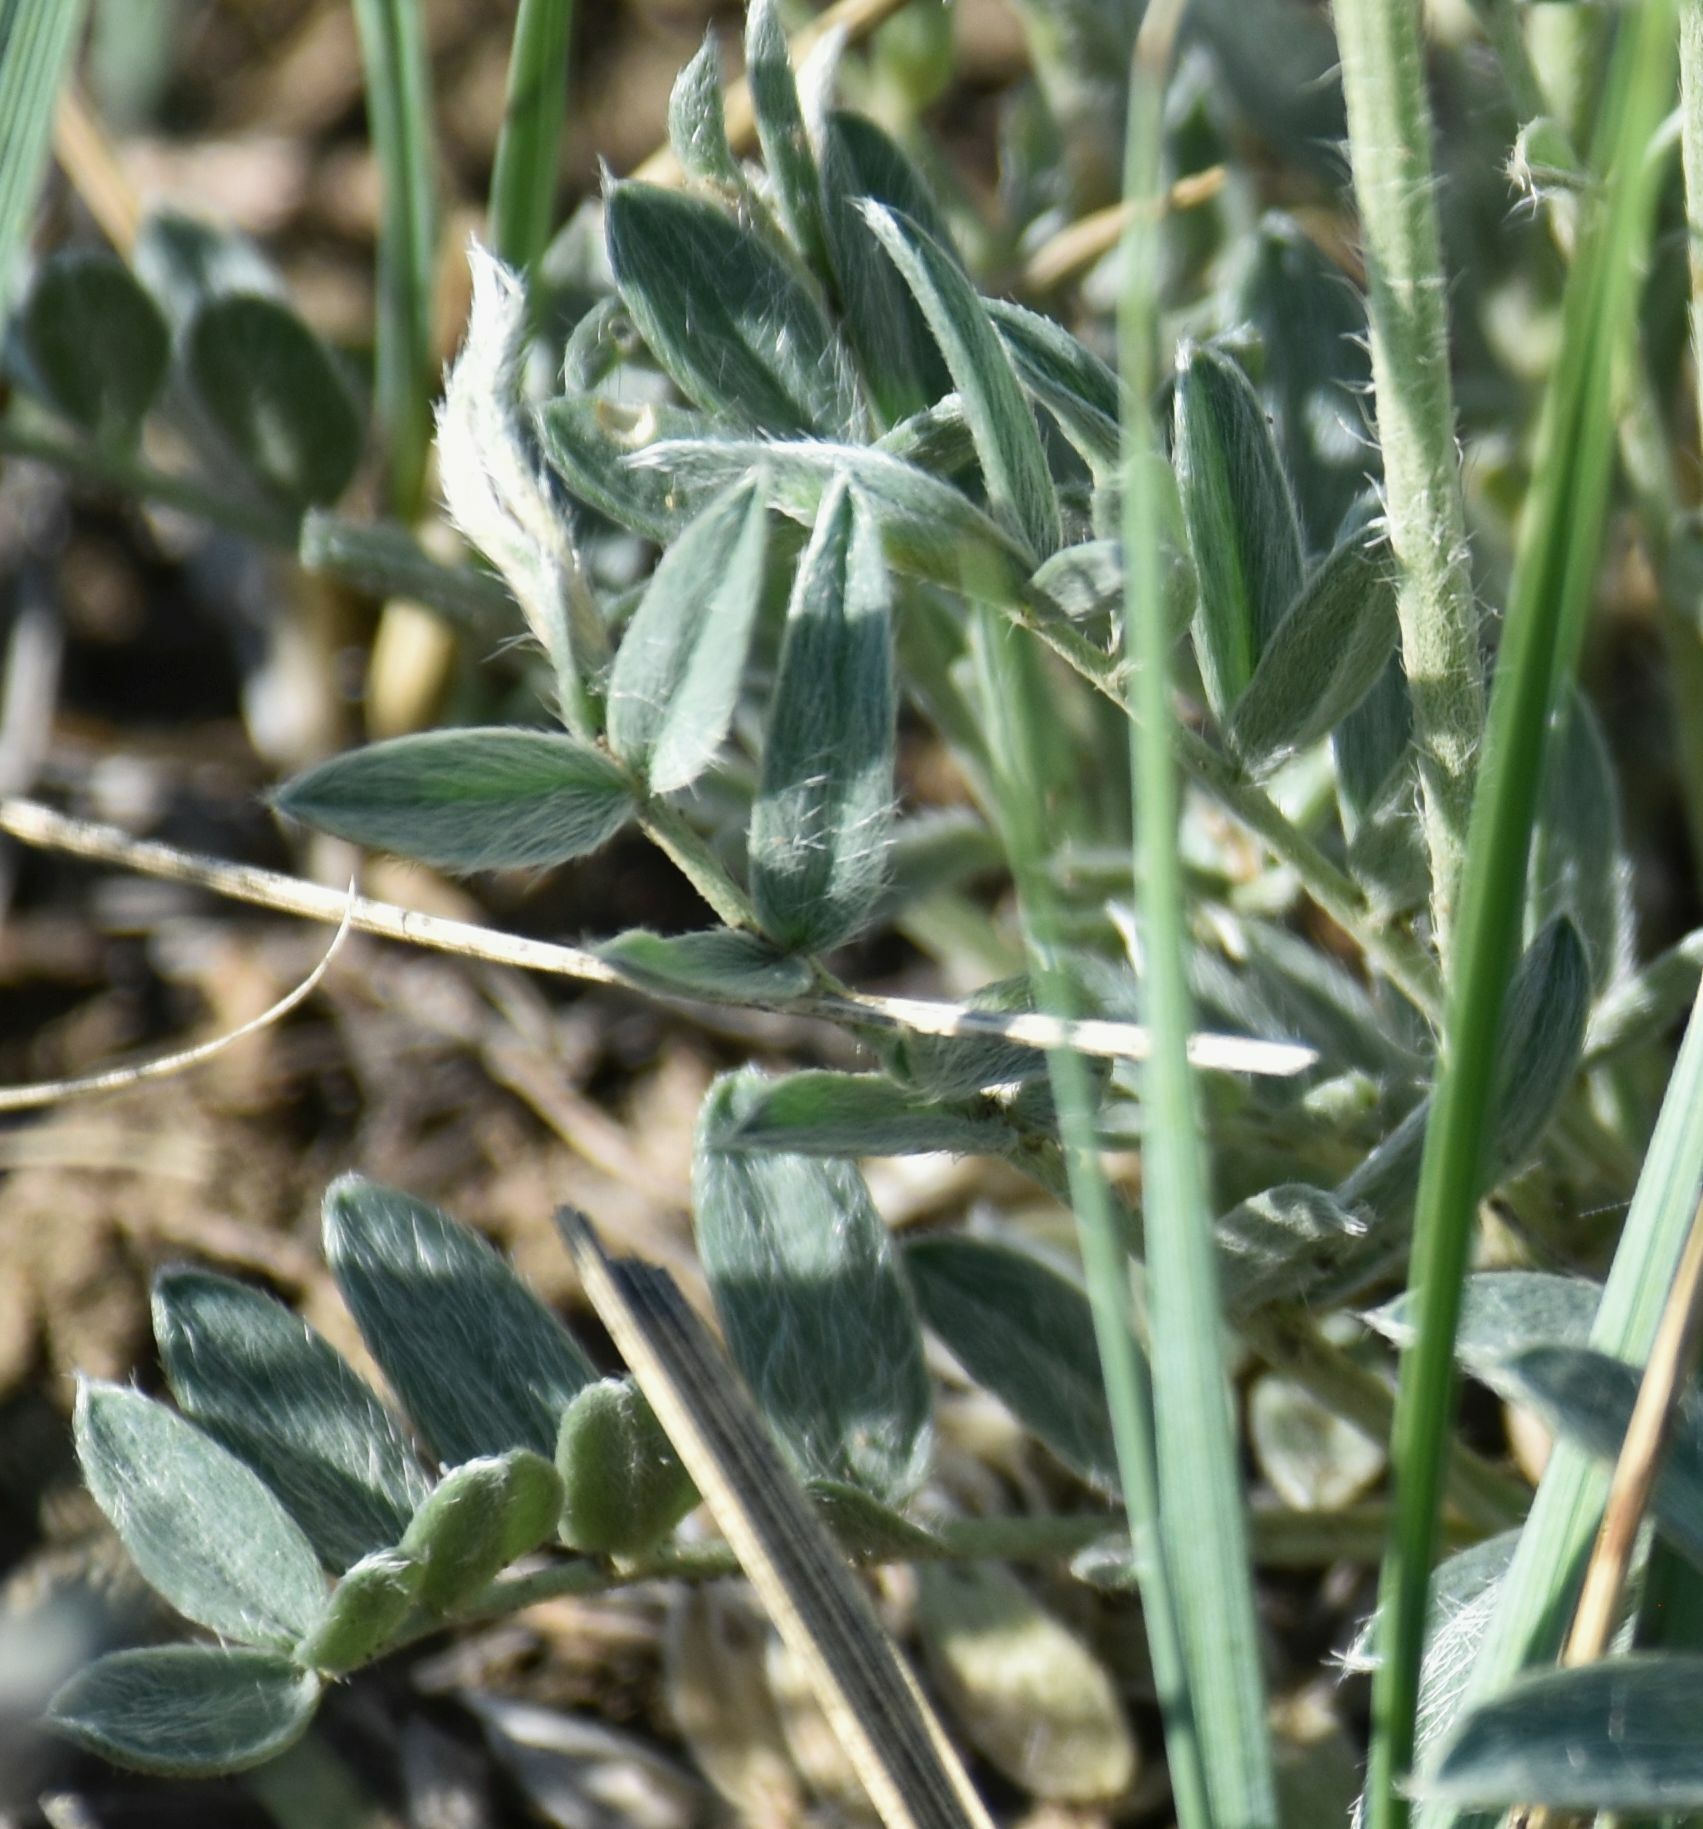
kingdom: Plantae
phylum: Tracheophyta
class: Magnoliopsida
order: Fabales
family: Fabaceae
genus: Oxytropis
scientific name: Oxytropis sericea
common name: Silky locoweed
